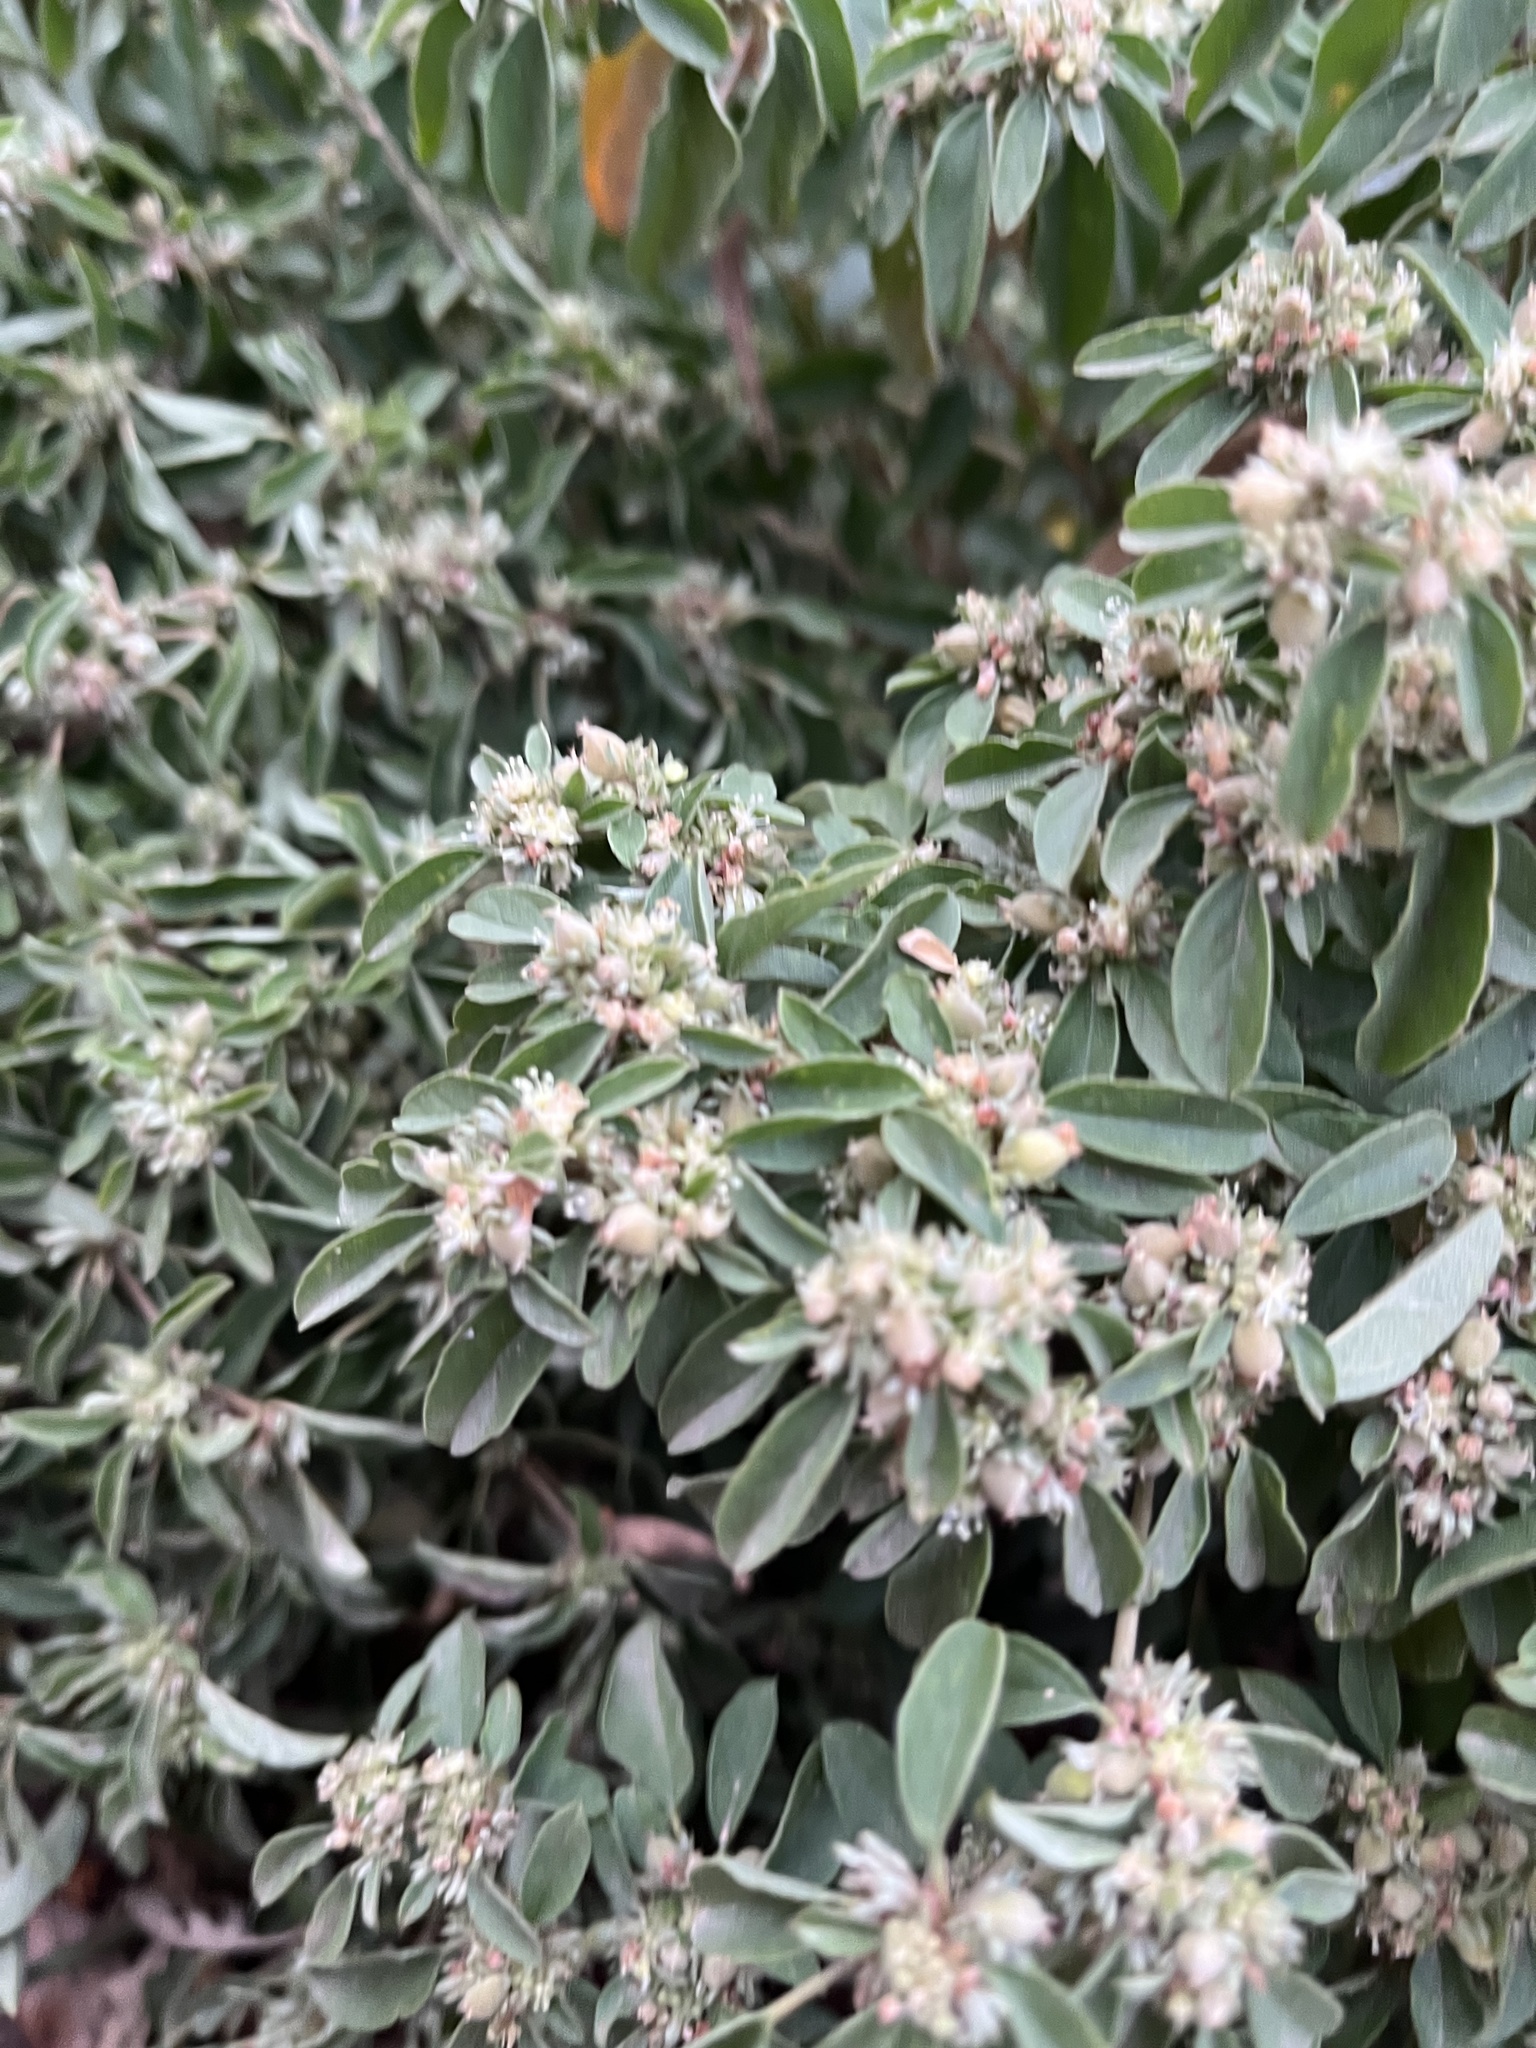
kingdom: Plantae
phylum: Tracheophyta
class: Magnoliopsida
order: Malpighiales
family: Euphorbiaceae
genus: Croton
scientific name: Croton monanthogynus
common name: One-seed croton
